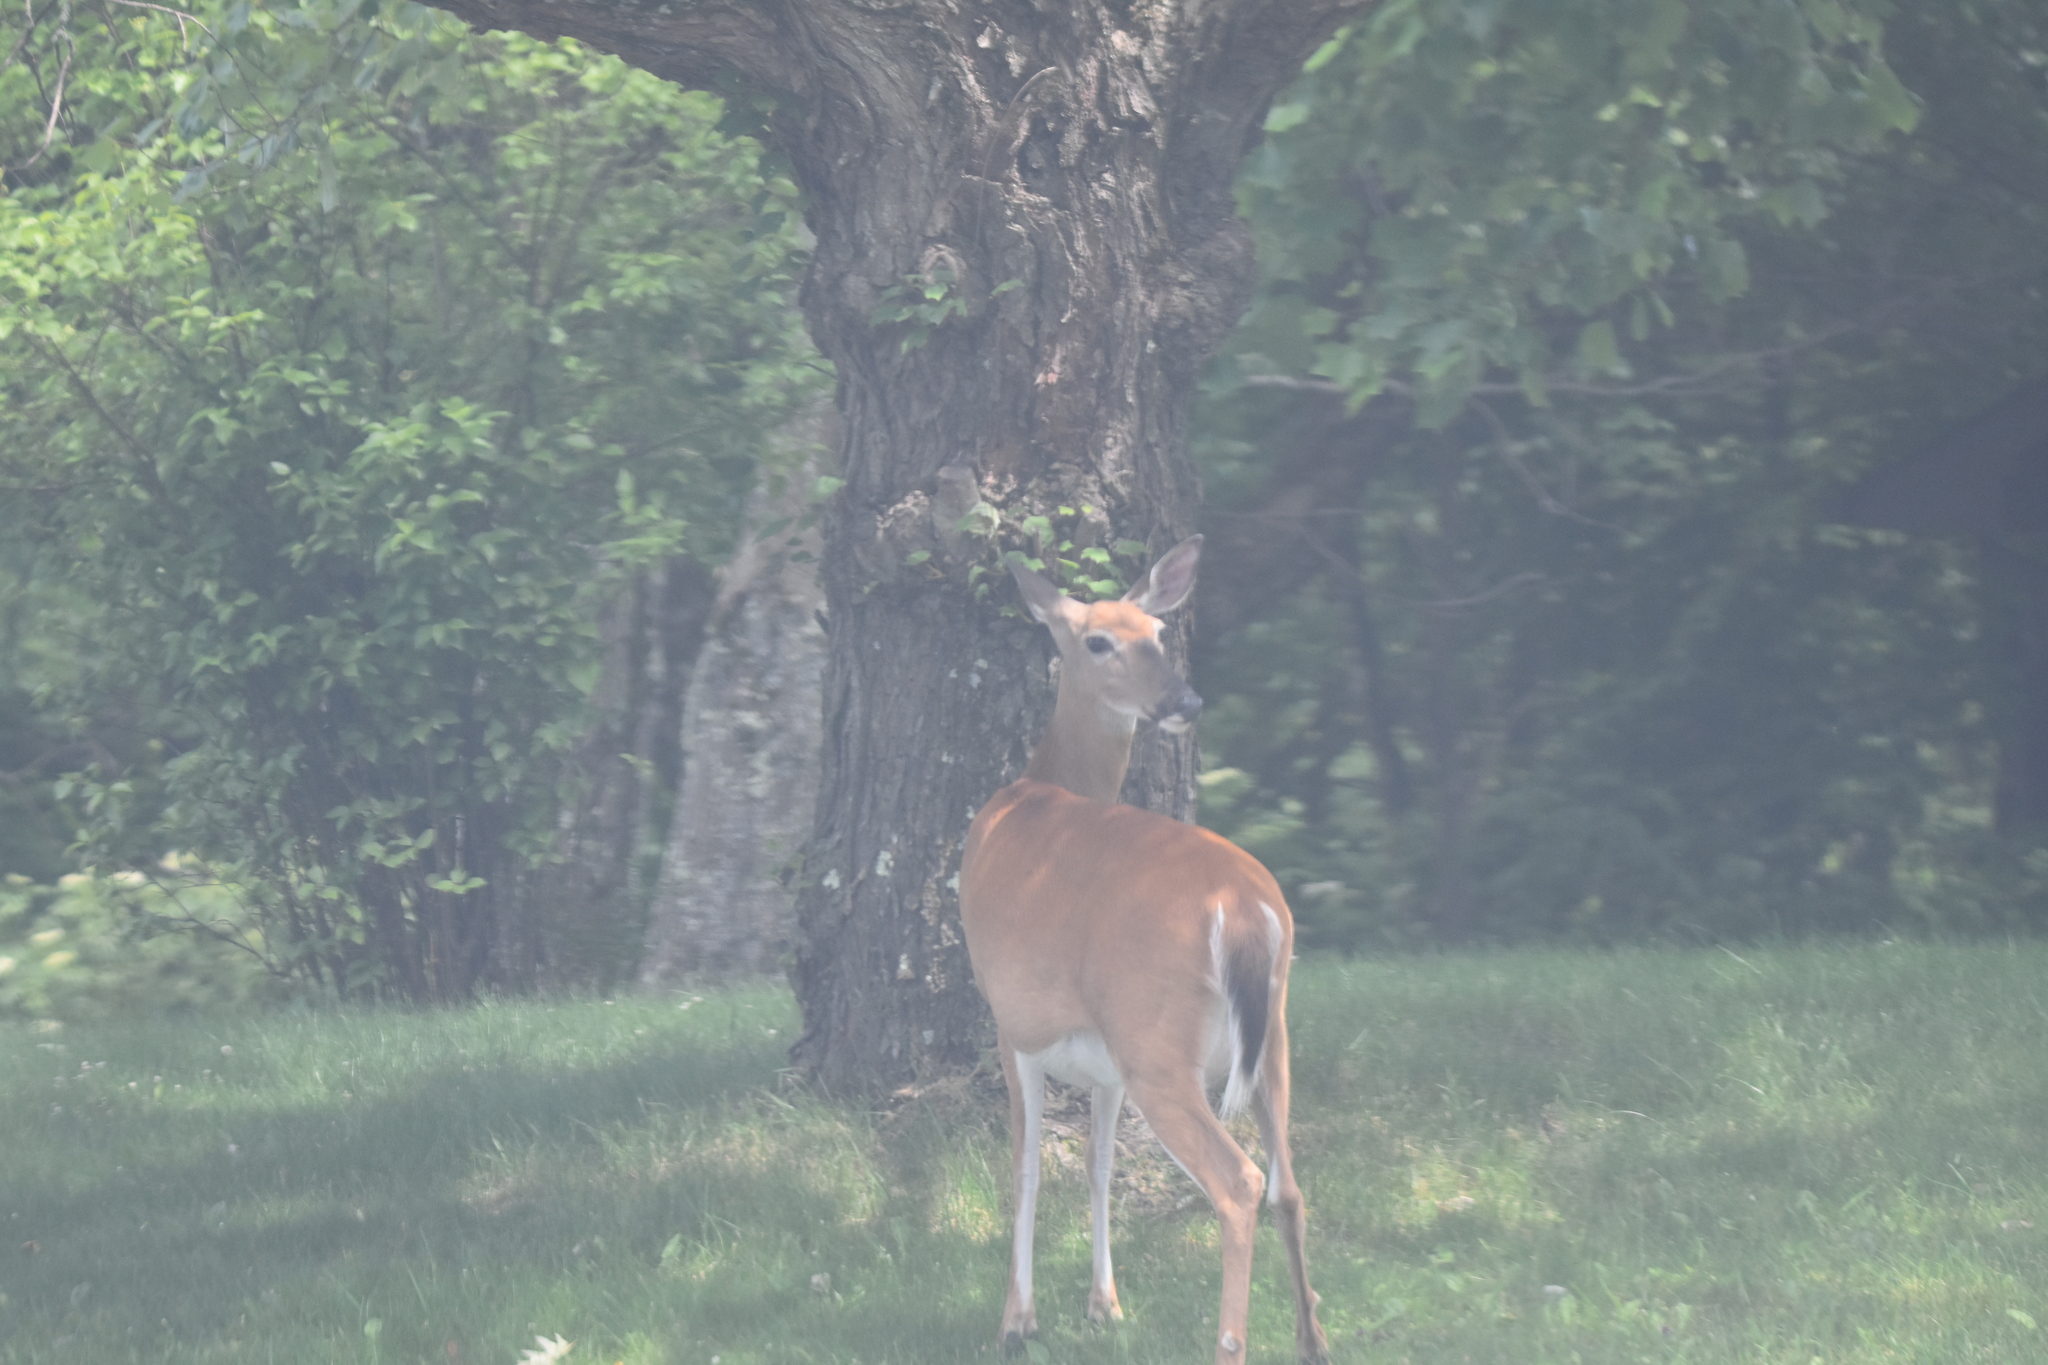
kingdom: Animalia
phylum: Chordata
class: Mammalia
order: Artiodactyla
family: Cervidae
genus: Odocoileus
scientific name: Odocoileus virginianus
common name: White-tailed deer
